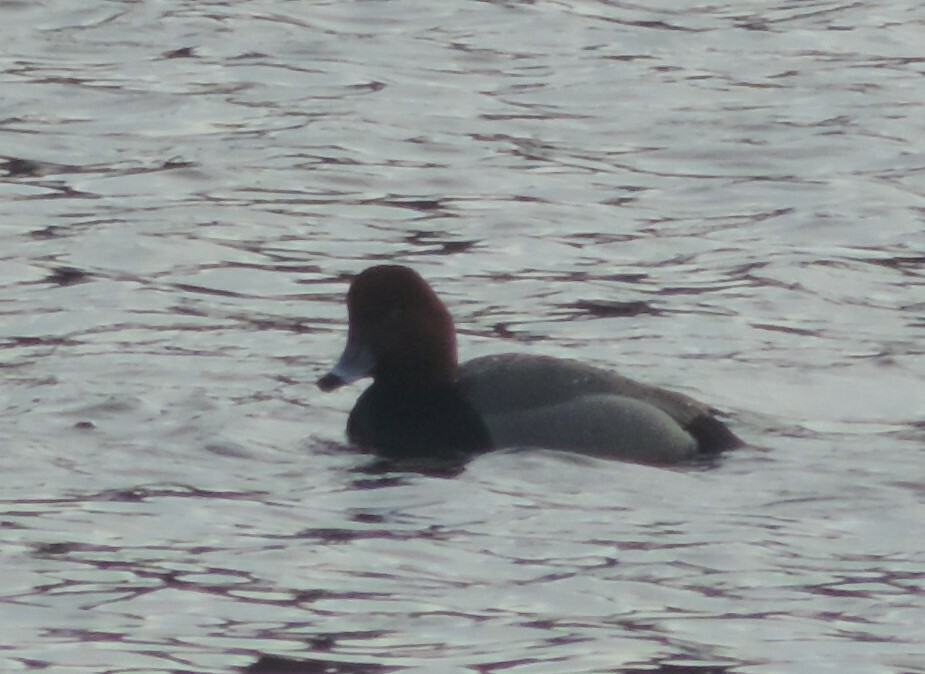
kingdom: Animalia
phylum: Chordata
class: Aves
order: Anseriformes
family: Anatidae
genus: Aythya
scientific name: Aythya americana
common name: Redhead
